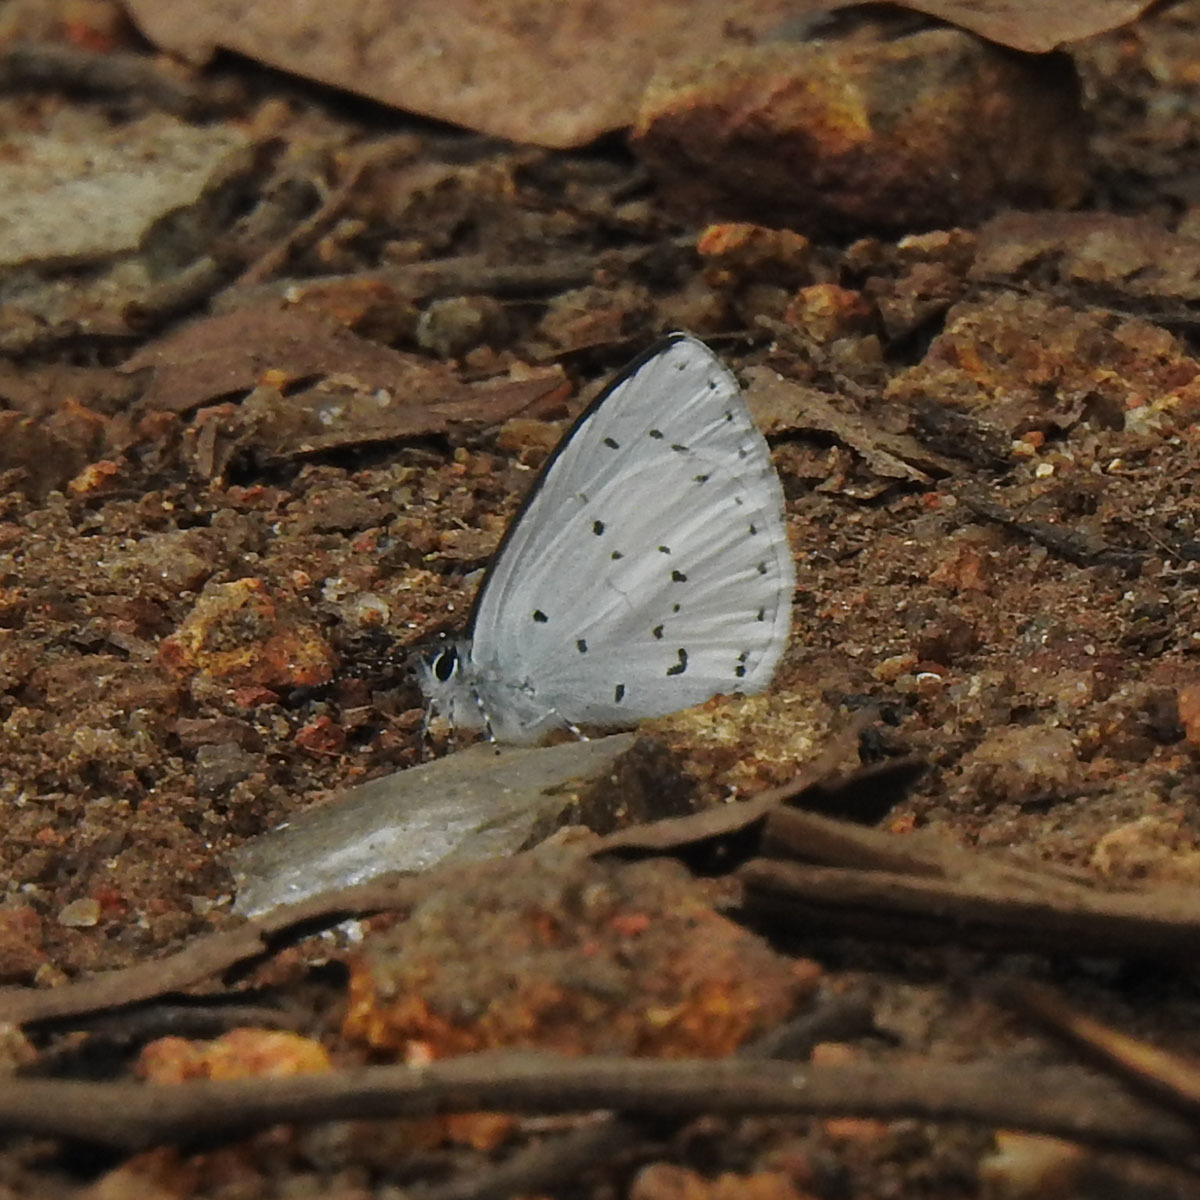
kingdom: Animalia
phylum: Arthropoda
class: Insecta
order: Lepidoptera
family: Lycaenidae
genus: Udara
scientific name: Udara akasa
